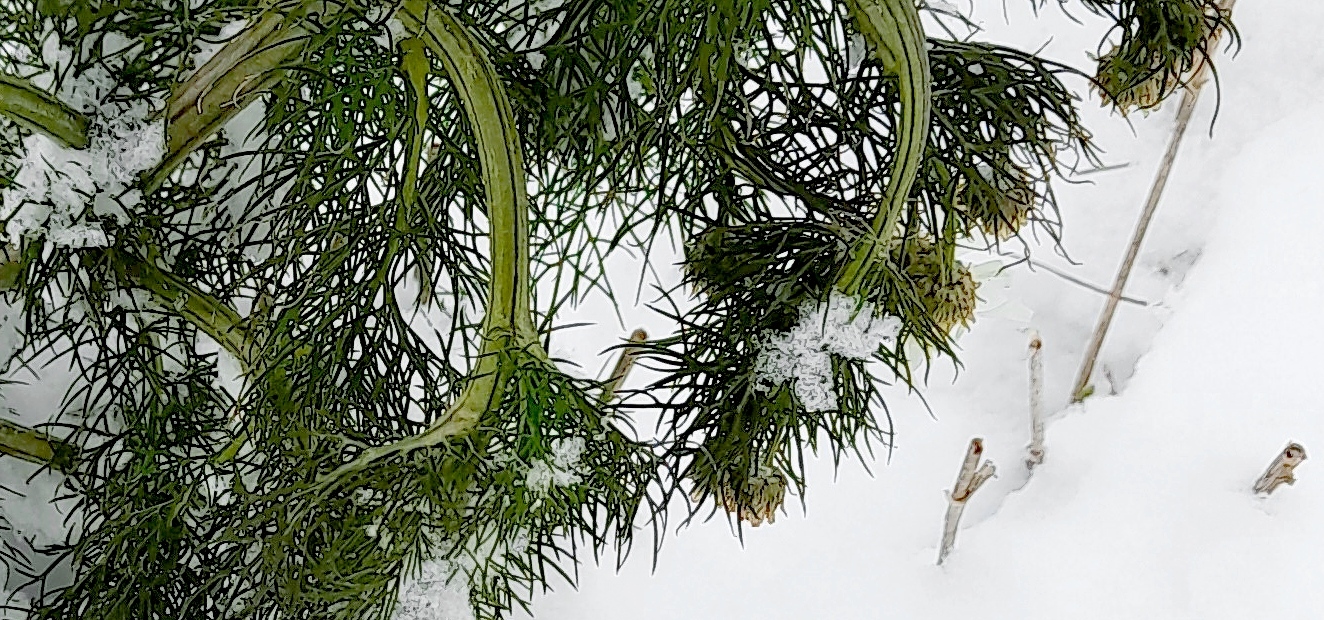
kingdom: Plantae
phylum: Tracheophyta
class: Magnoliopsida
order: Asterales
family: Asteraceae
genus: Tripleurospermum
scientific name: Tripleurospermum inodorum
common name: Scentless mayweed
